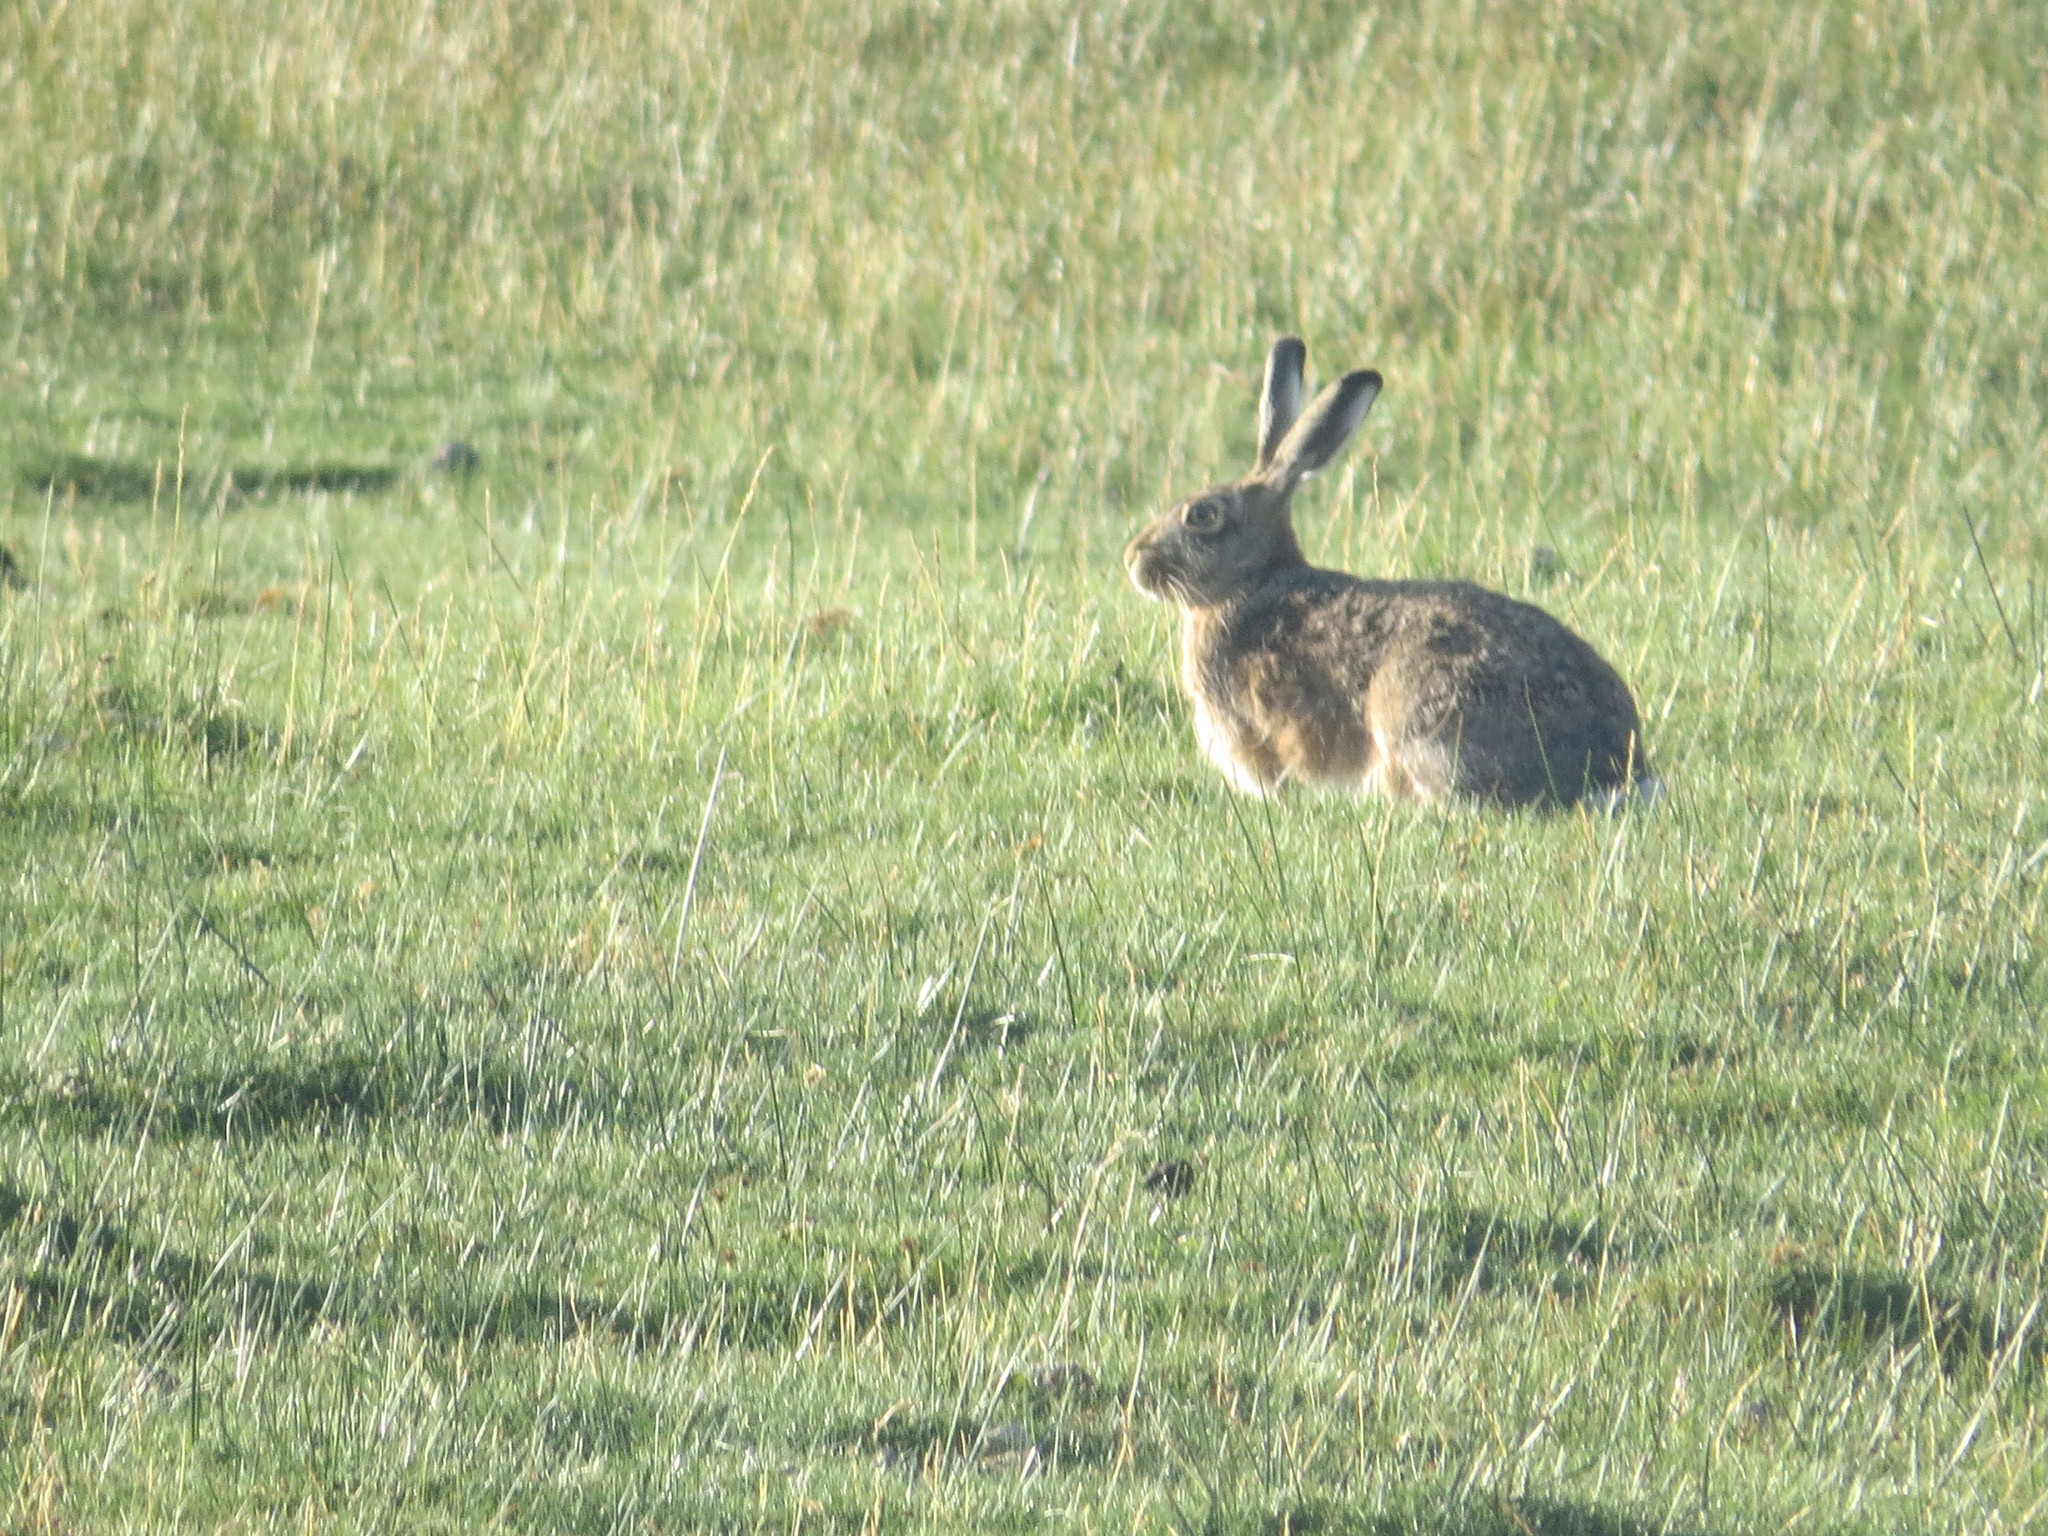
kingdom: Animalia
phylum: Chordata
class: Mammalia
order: Lagomorpha
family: Leporidae
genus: Lepus
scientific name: Lepus europaeus
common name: European hare
